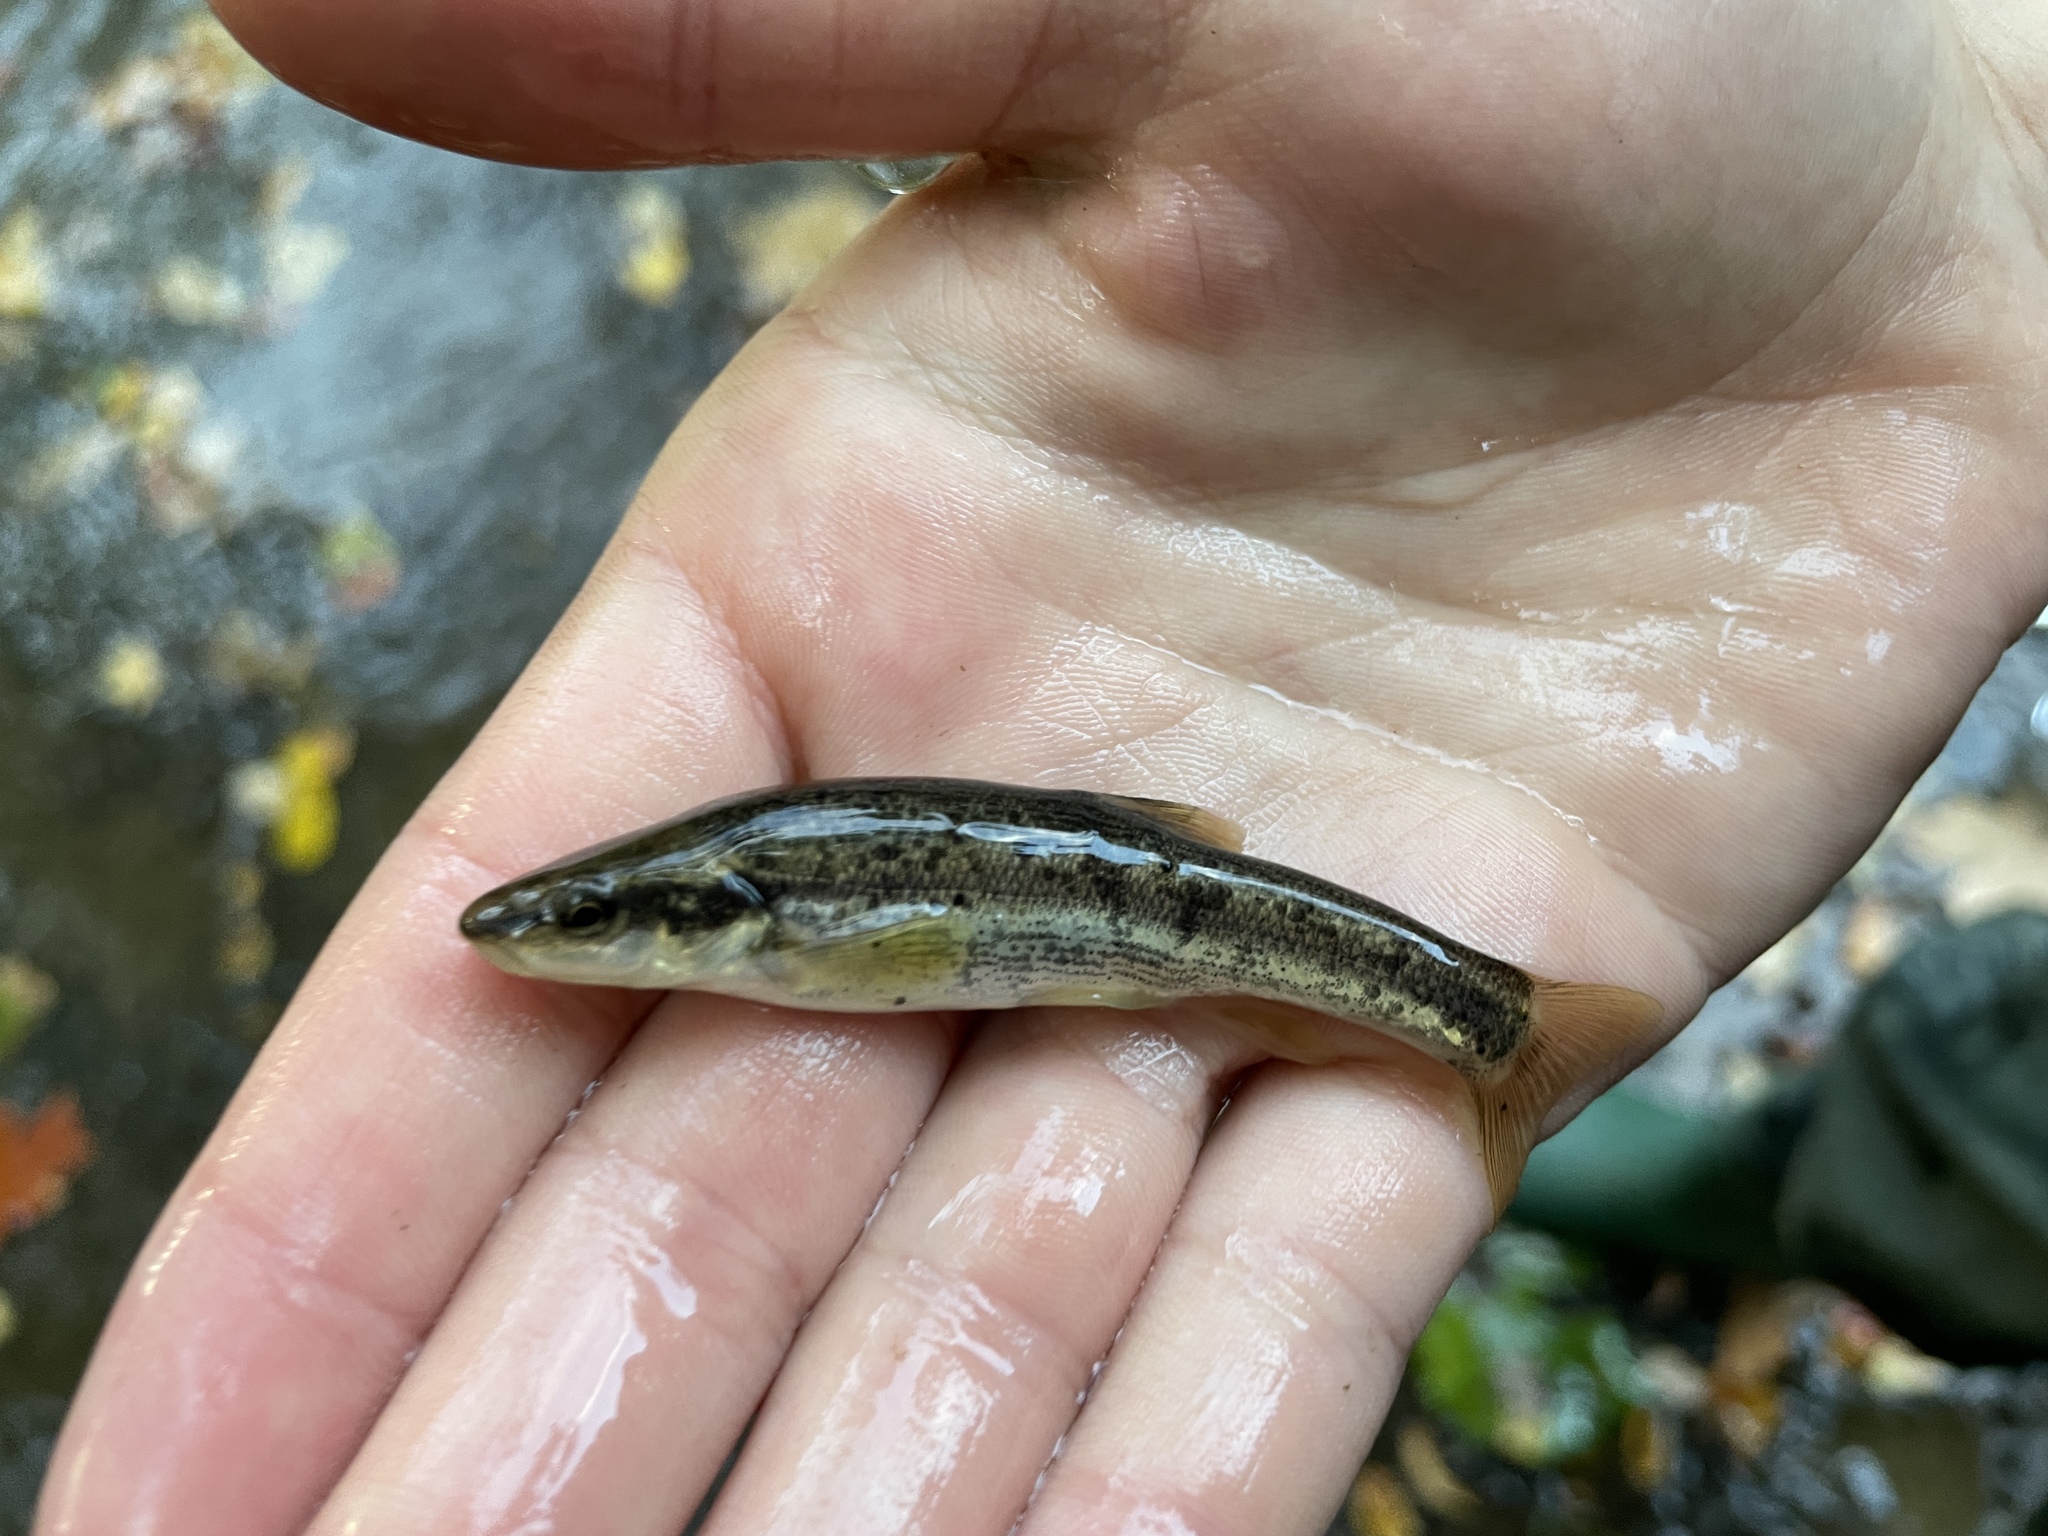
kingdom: Animalia
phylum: Platyhelminthes
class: Trematoda
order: Diplostomida
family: Diplostomidae
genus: Neascus
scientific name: Neascus
